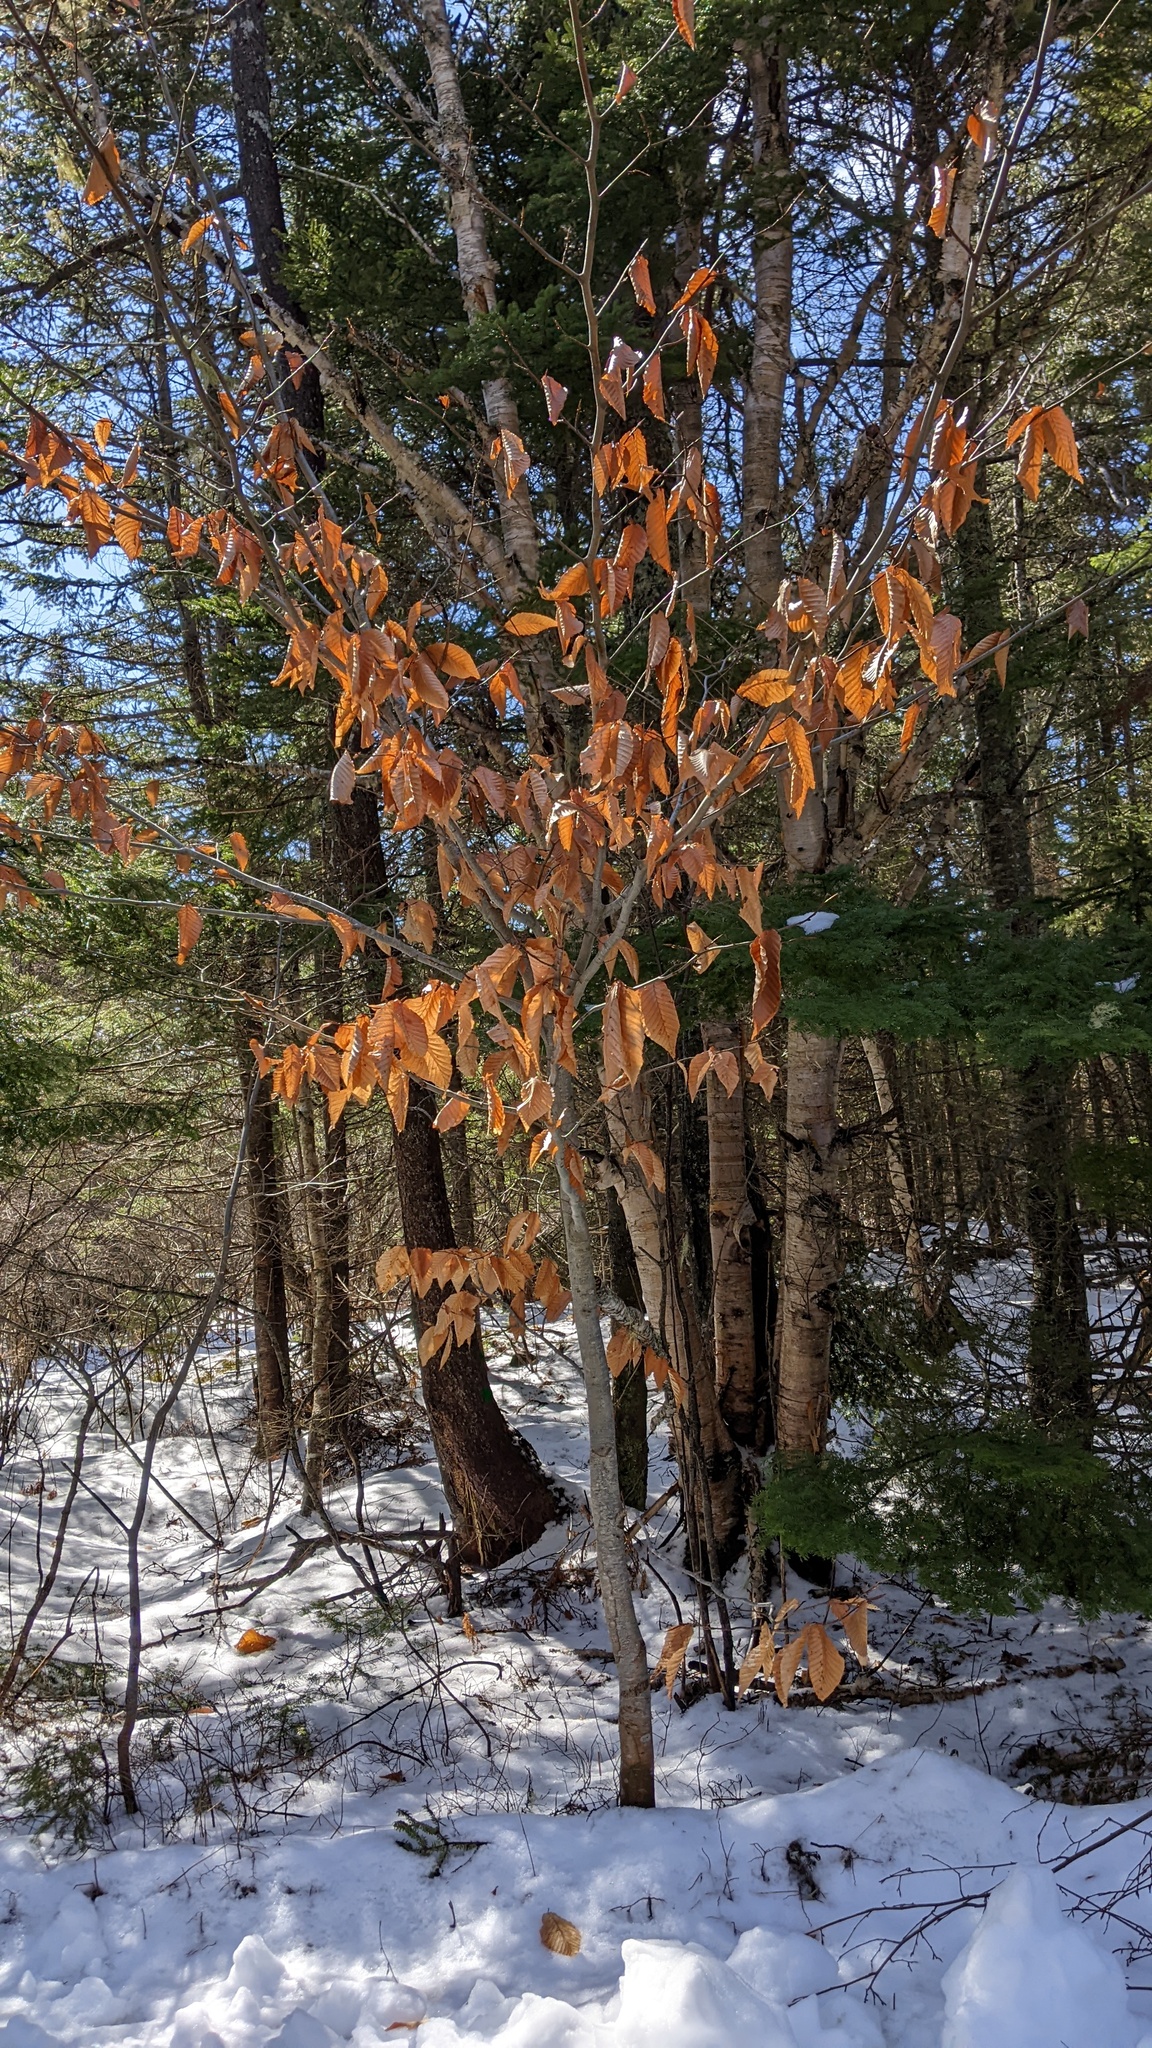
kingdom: Plantae
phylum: Tracheophyta
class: Magnoliopsida
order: Fagales
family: Fagaceae
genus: Fagus
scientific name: Fagus grandifolia
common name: American beech
